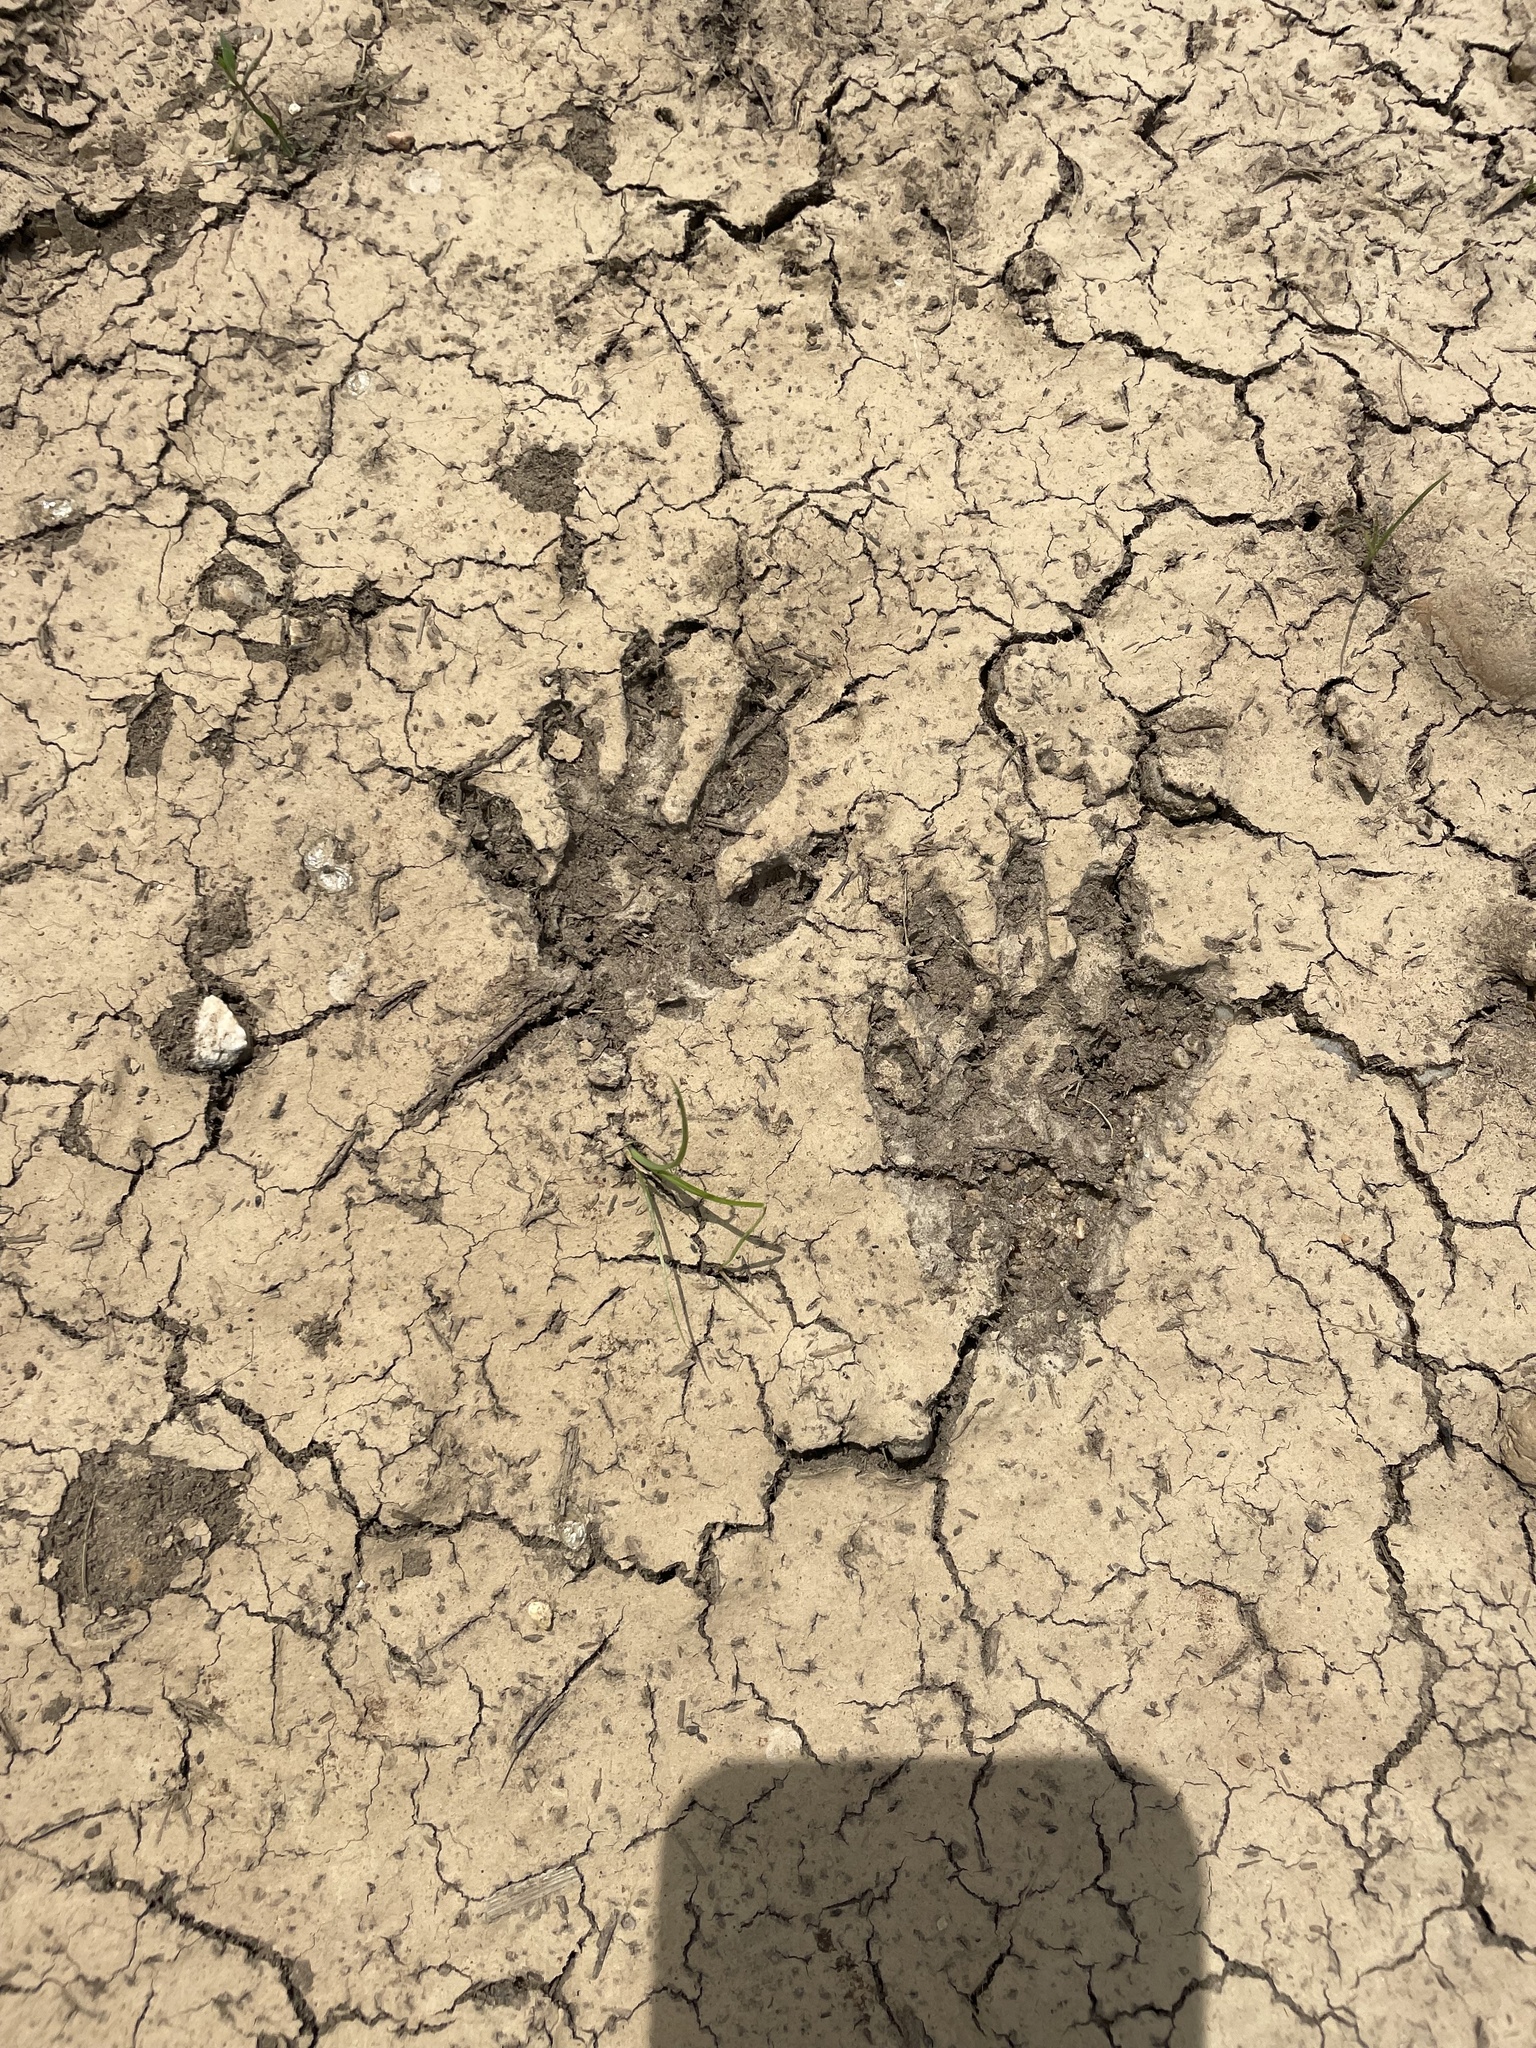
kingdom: Animalia
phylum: Chordata
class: Mammalia
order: Carnivora
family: Procyonidae
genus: Procyon
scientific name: Procyon lotor
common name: Raccoon
